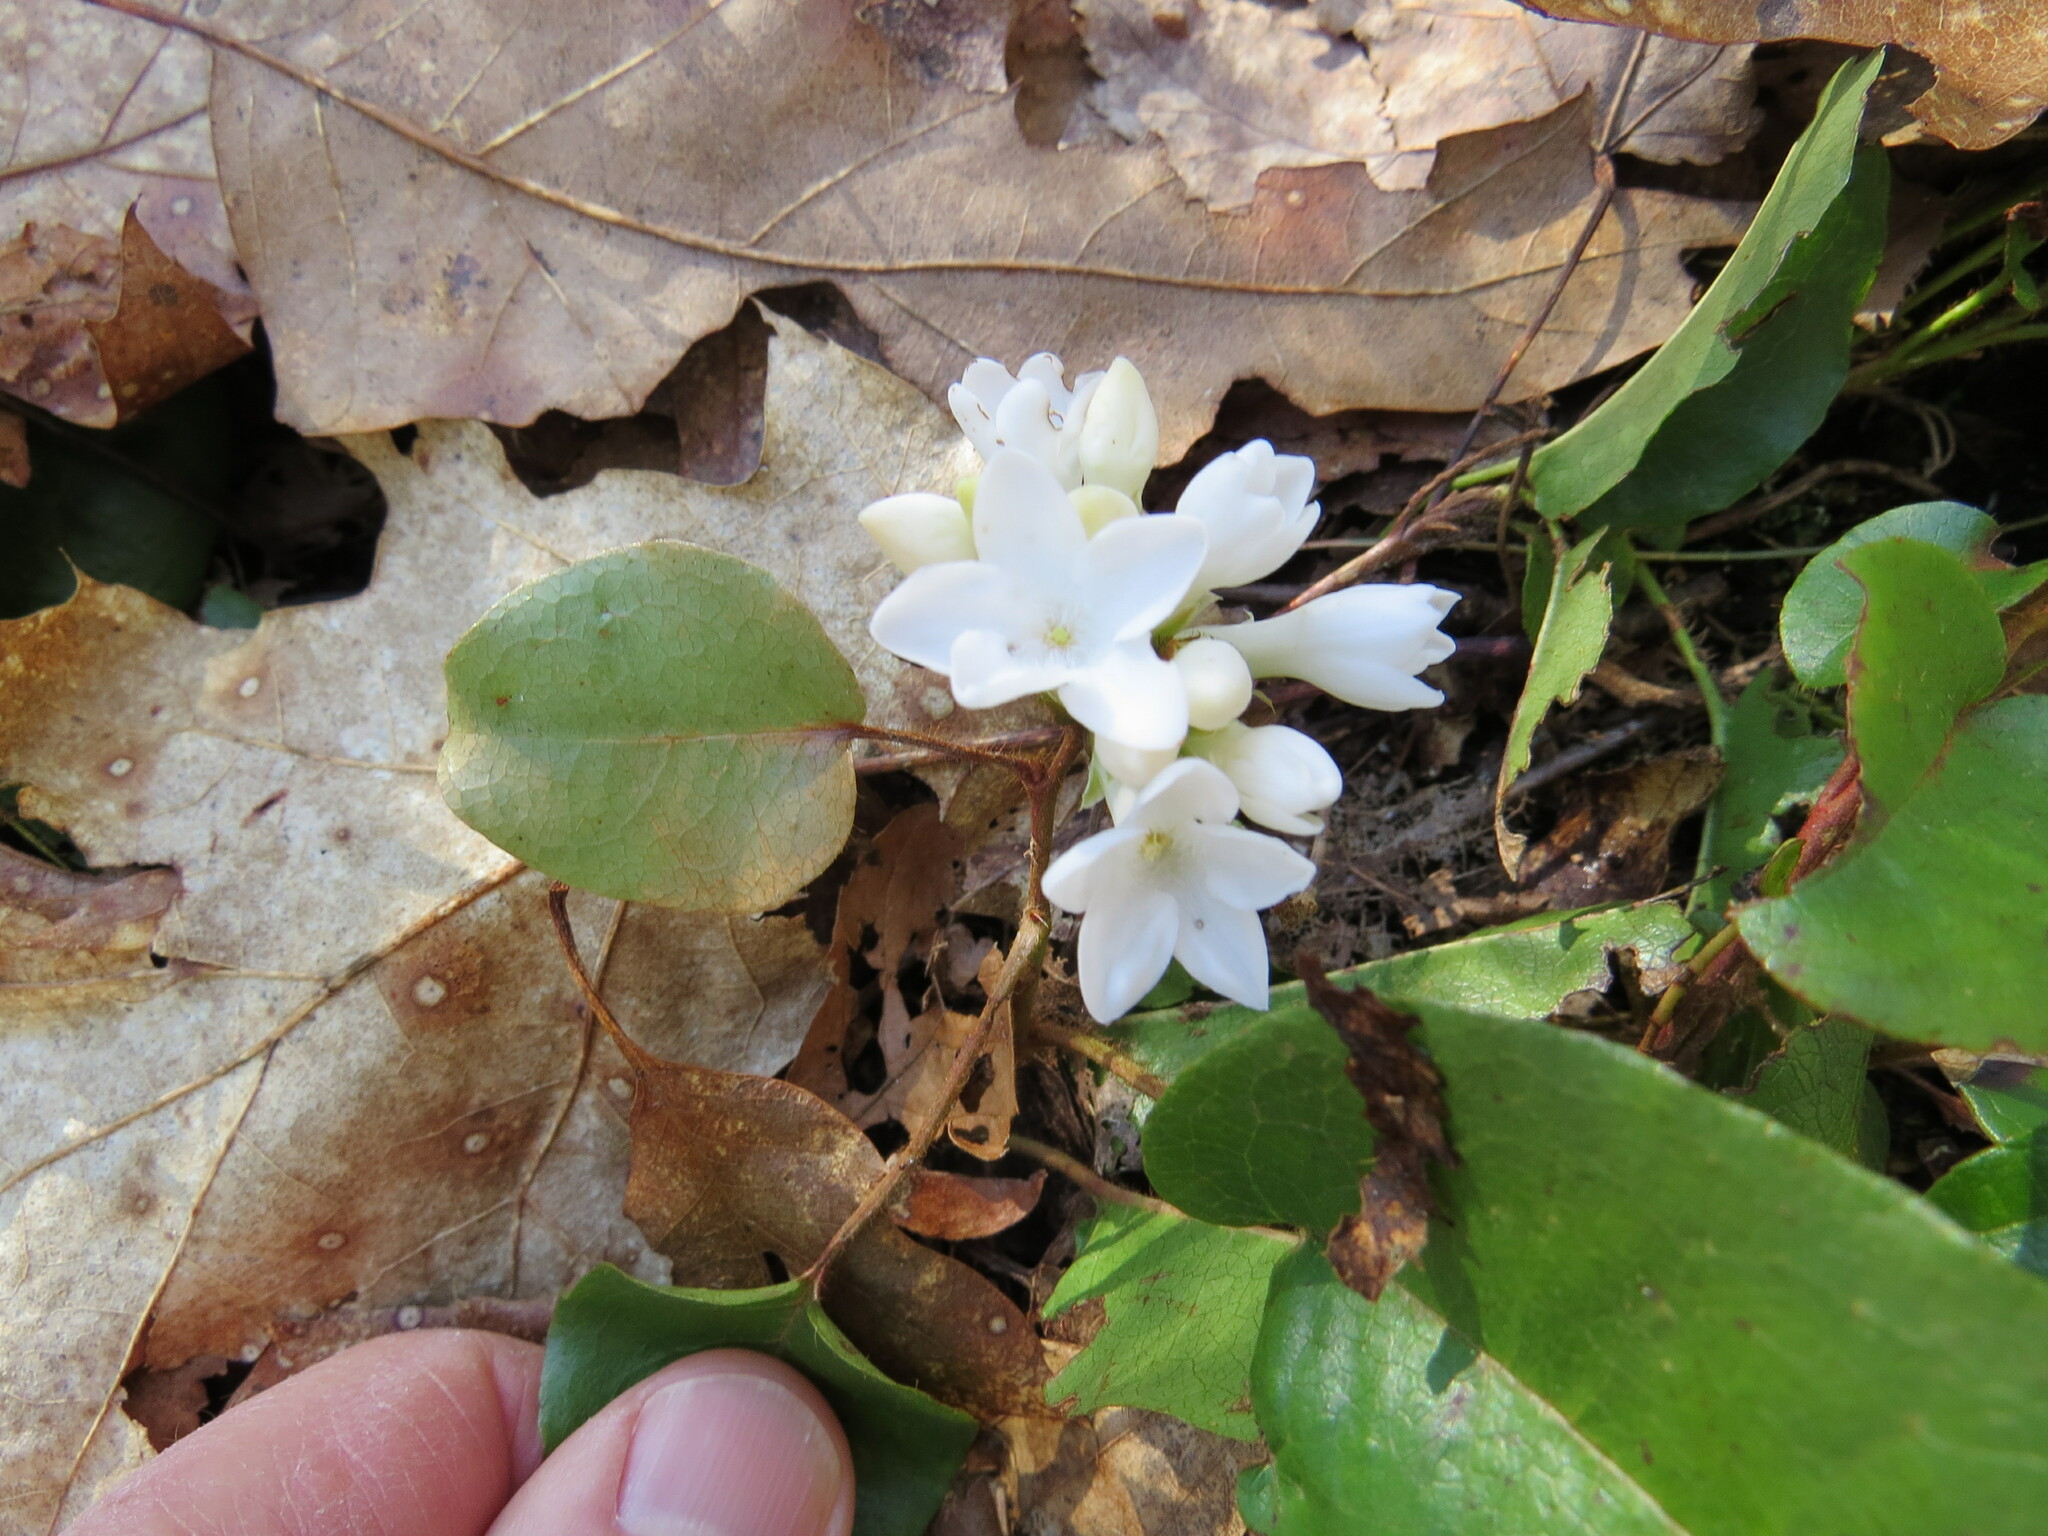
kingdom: Plantae
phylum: Tracheophyta
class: Magnoliopsida
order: Ericales
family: Ericaceae
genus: Epigaea
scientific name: Epigaea repens
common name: Gravelroot
